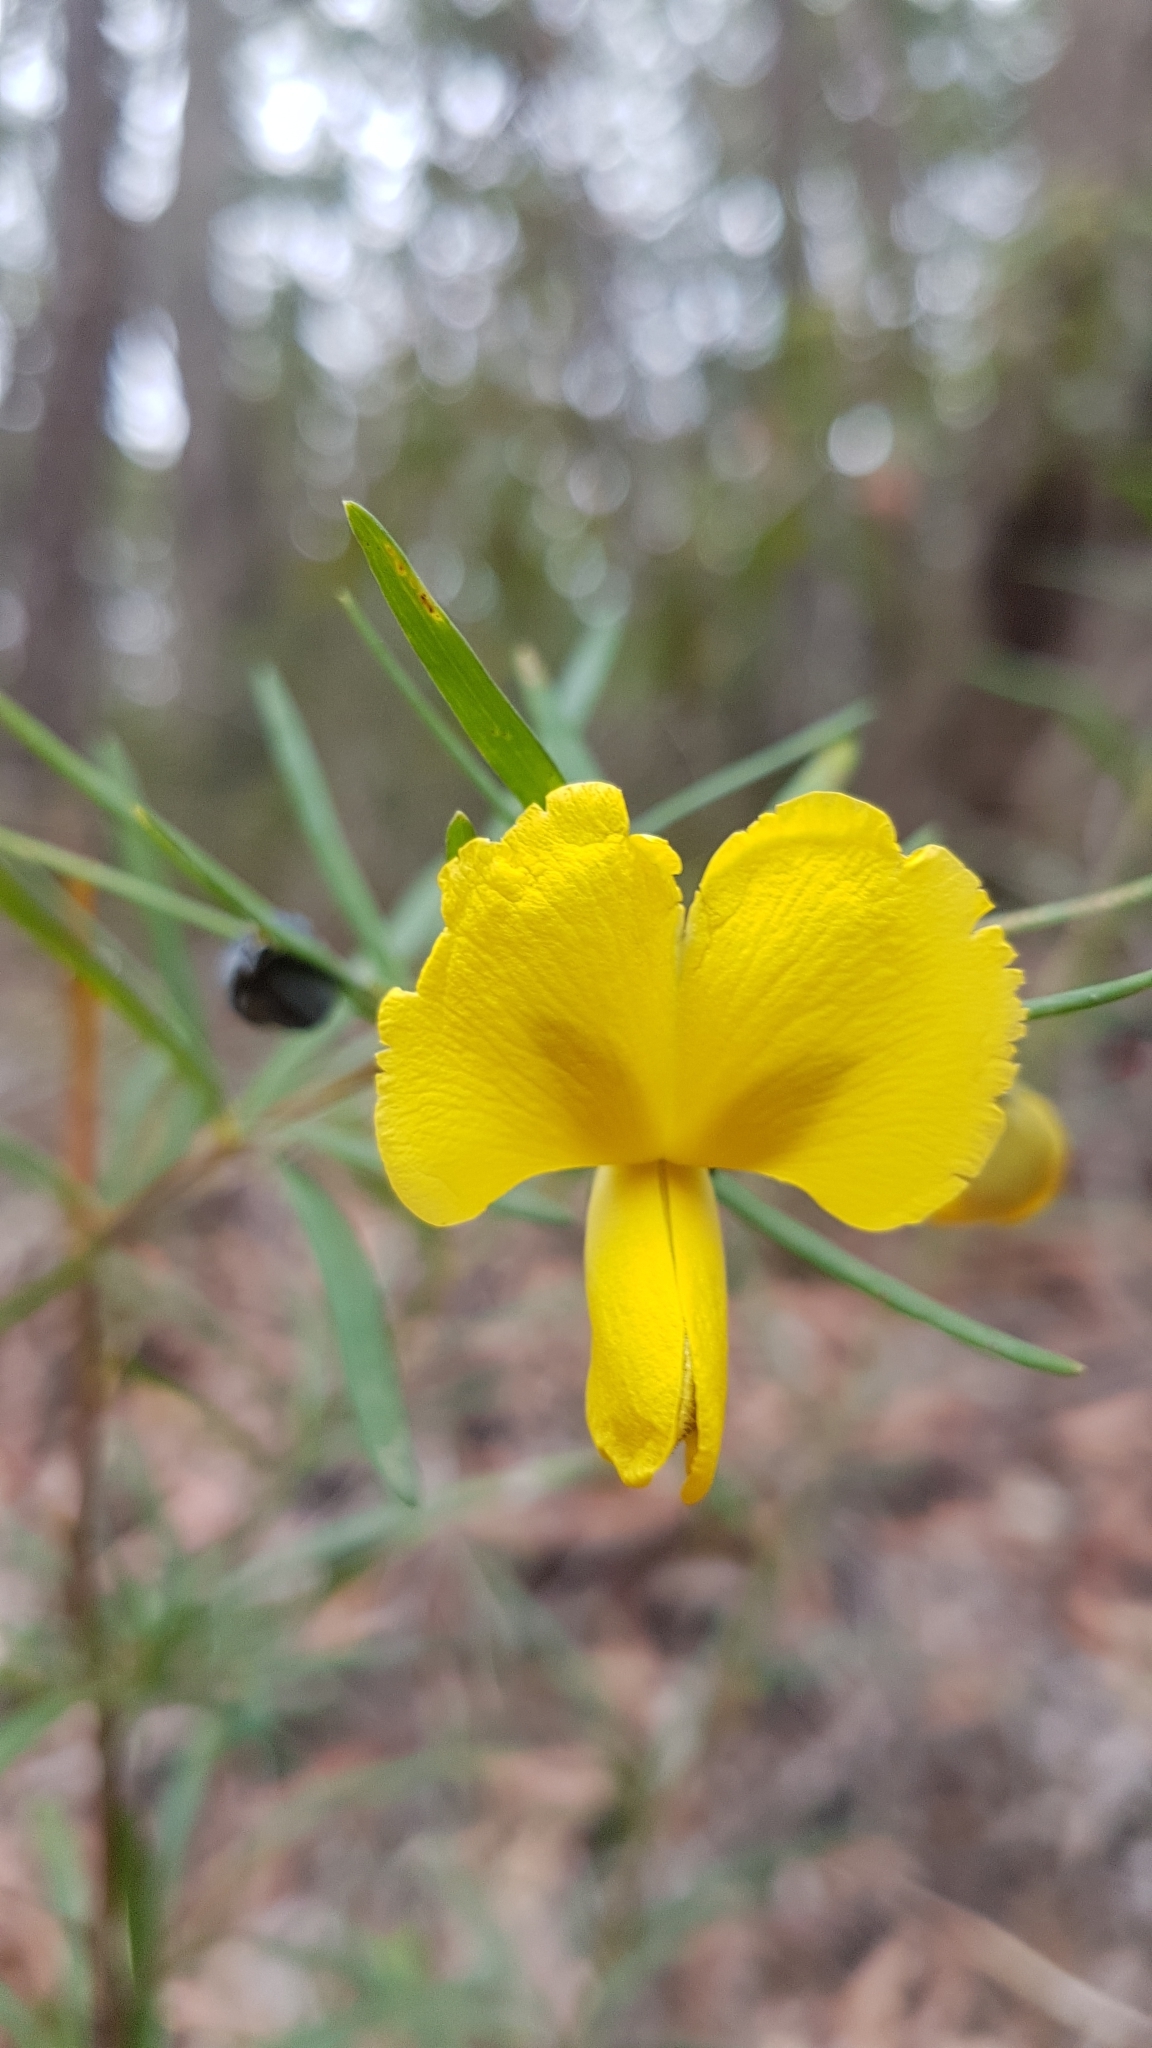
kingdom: Plantae
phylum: Tracheophyta
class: Magnoliopsida
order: Fabales
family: Fabaceae
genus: Gompholobium
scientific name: Gompholobium latifolium
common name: Broadleaf wedge-pea
